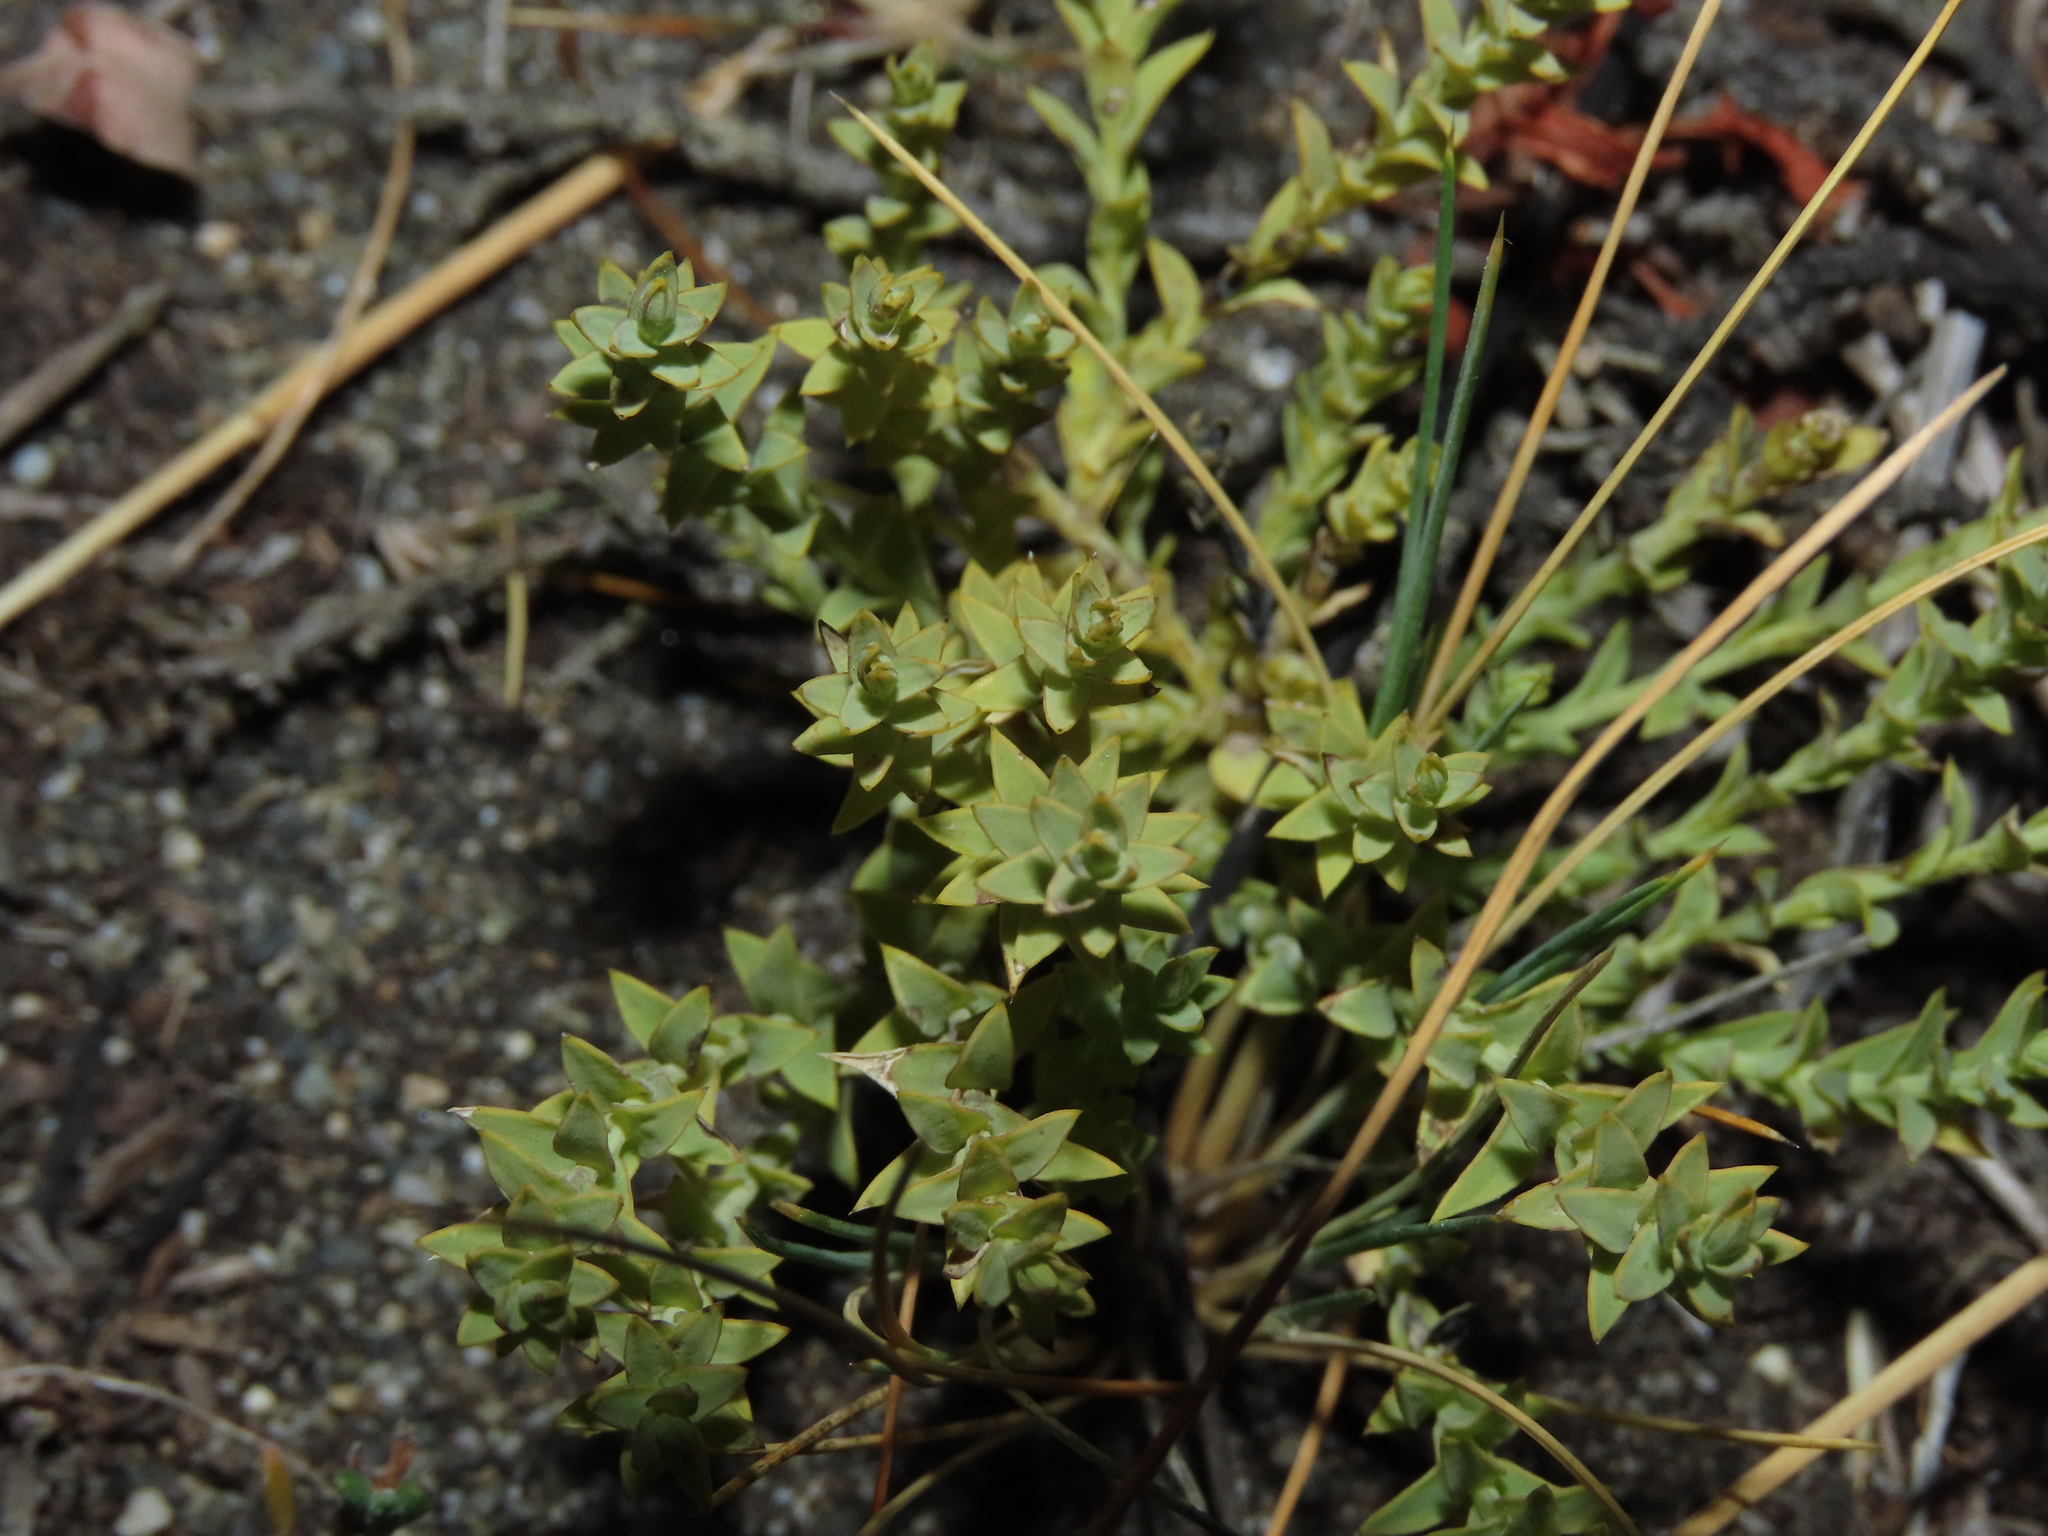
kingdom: Plantae
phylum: Tracheophyta
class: Magnoliopsida
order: Santalales
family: Schoepfiaceae
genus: Arjona
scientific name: Arjona patagonica
